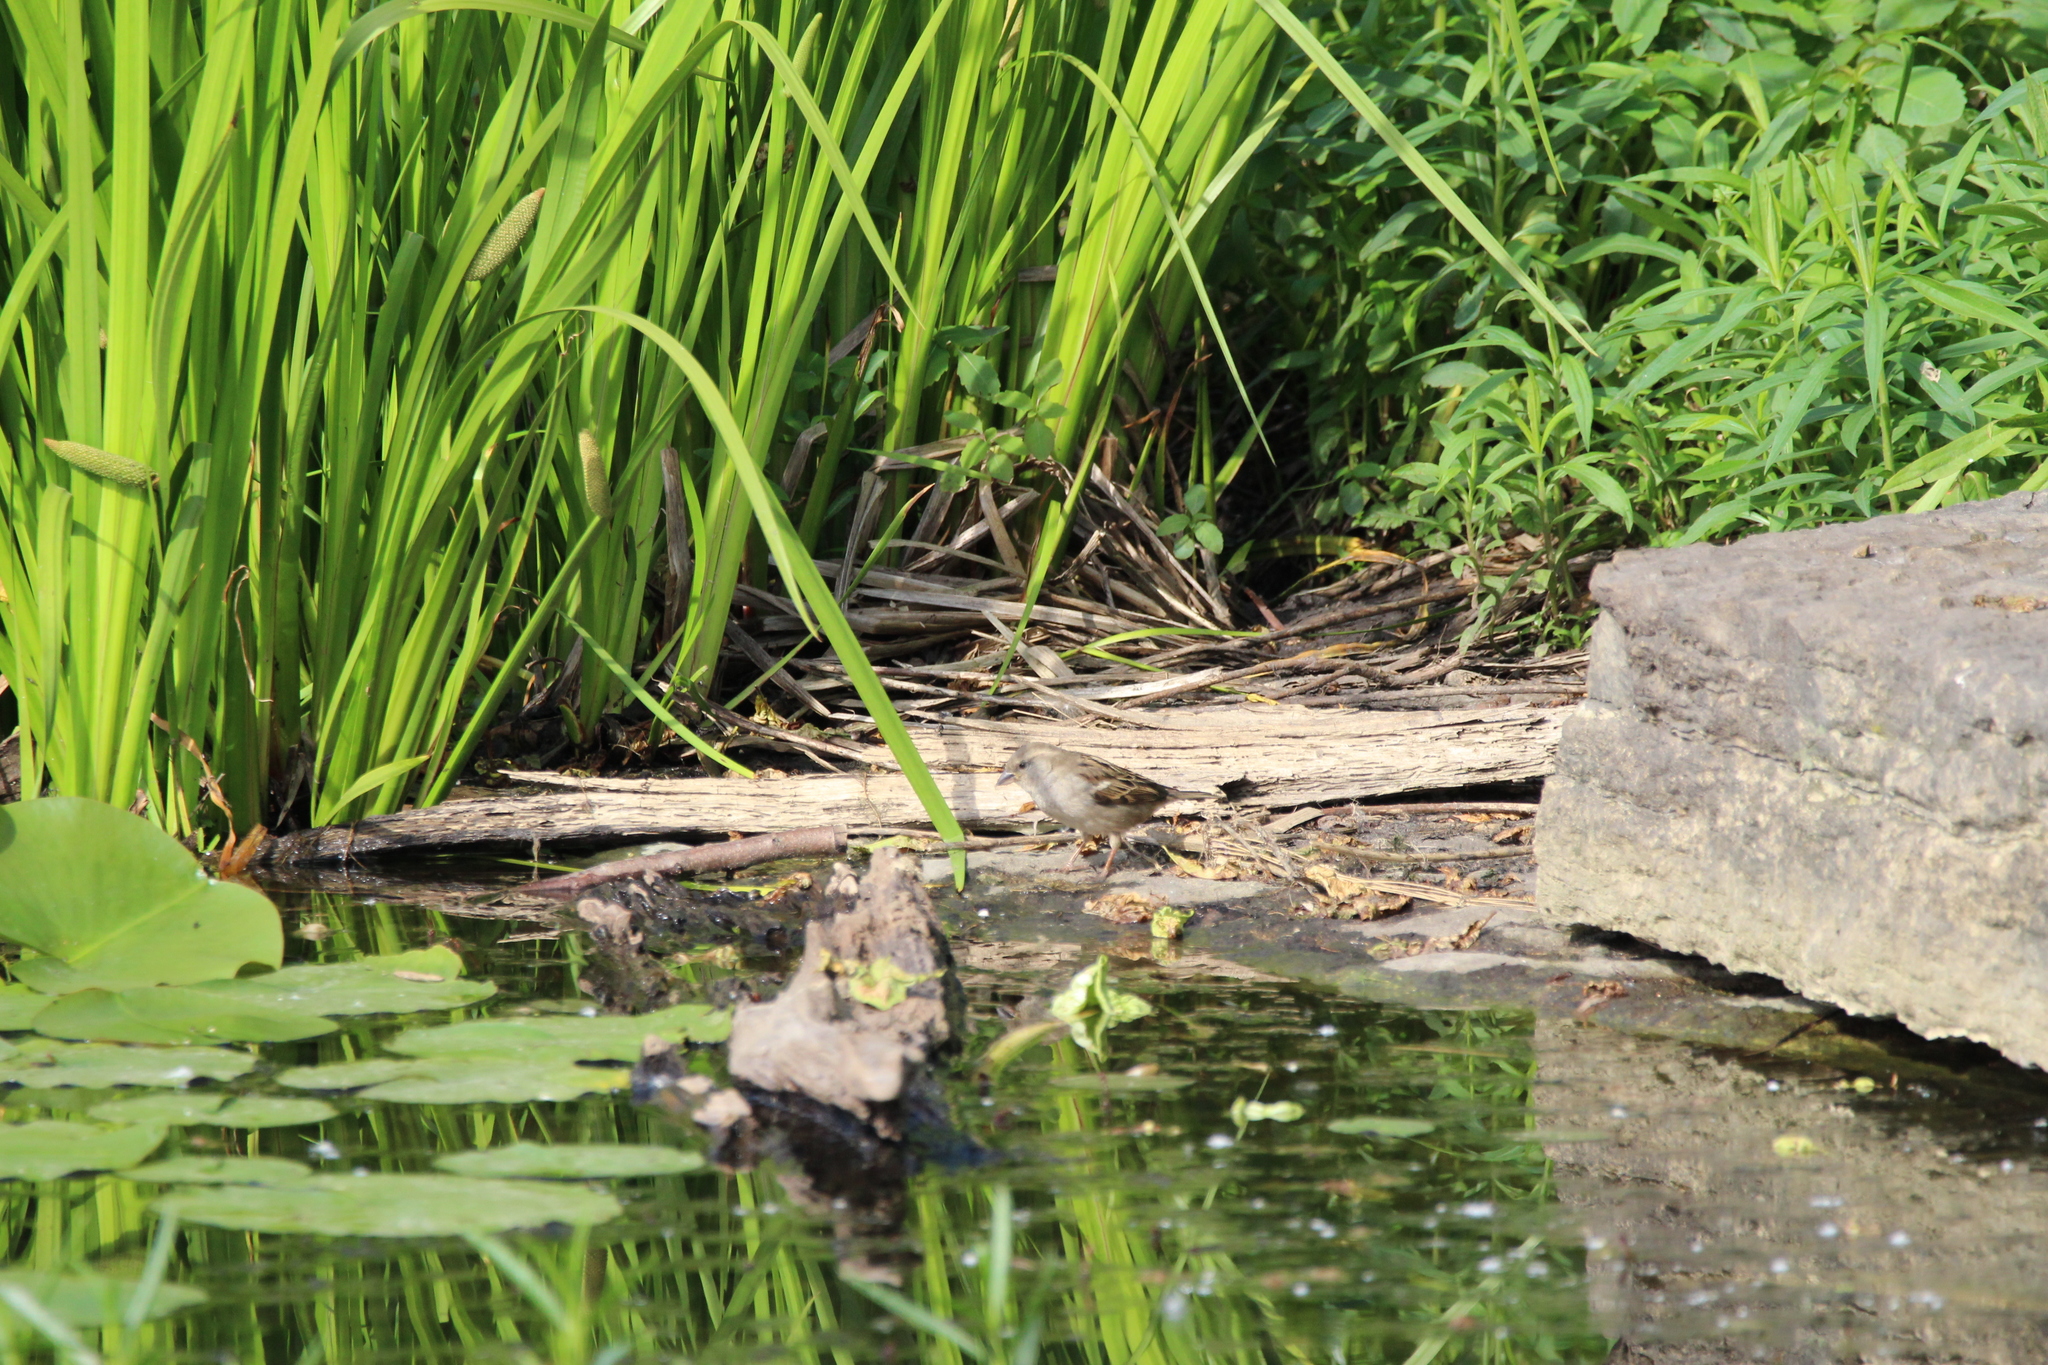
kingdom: Animalia
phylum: Chordata
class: Aves
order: Passeriformes
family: Passeridae
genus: Passer
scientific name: Passer domesticus
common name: House sparrow
